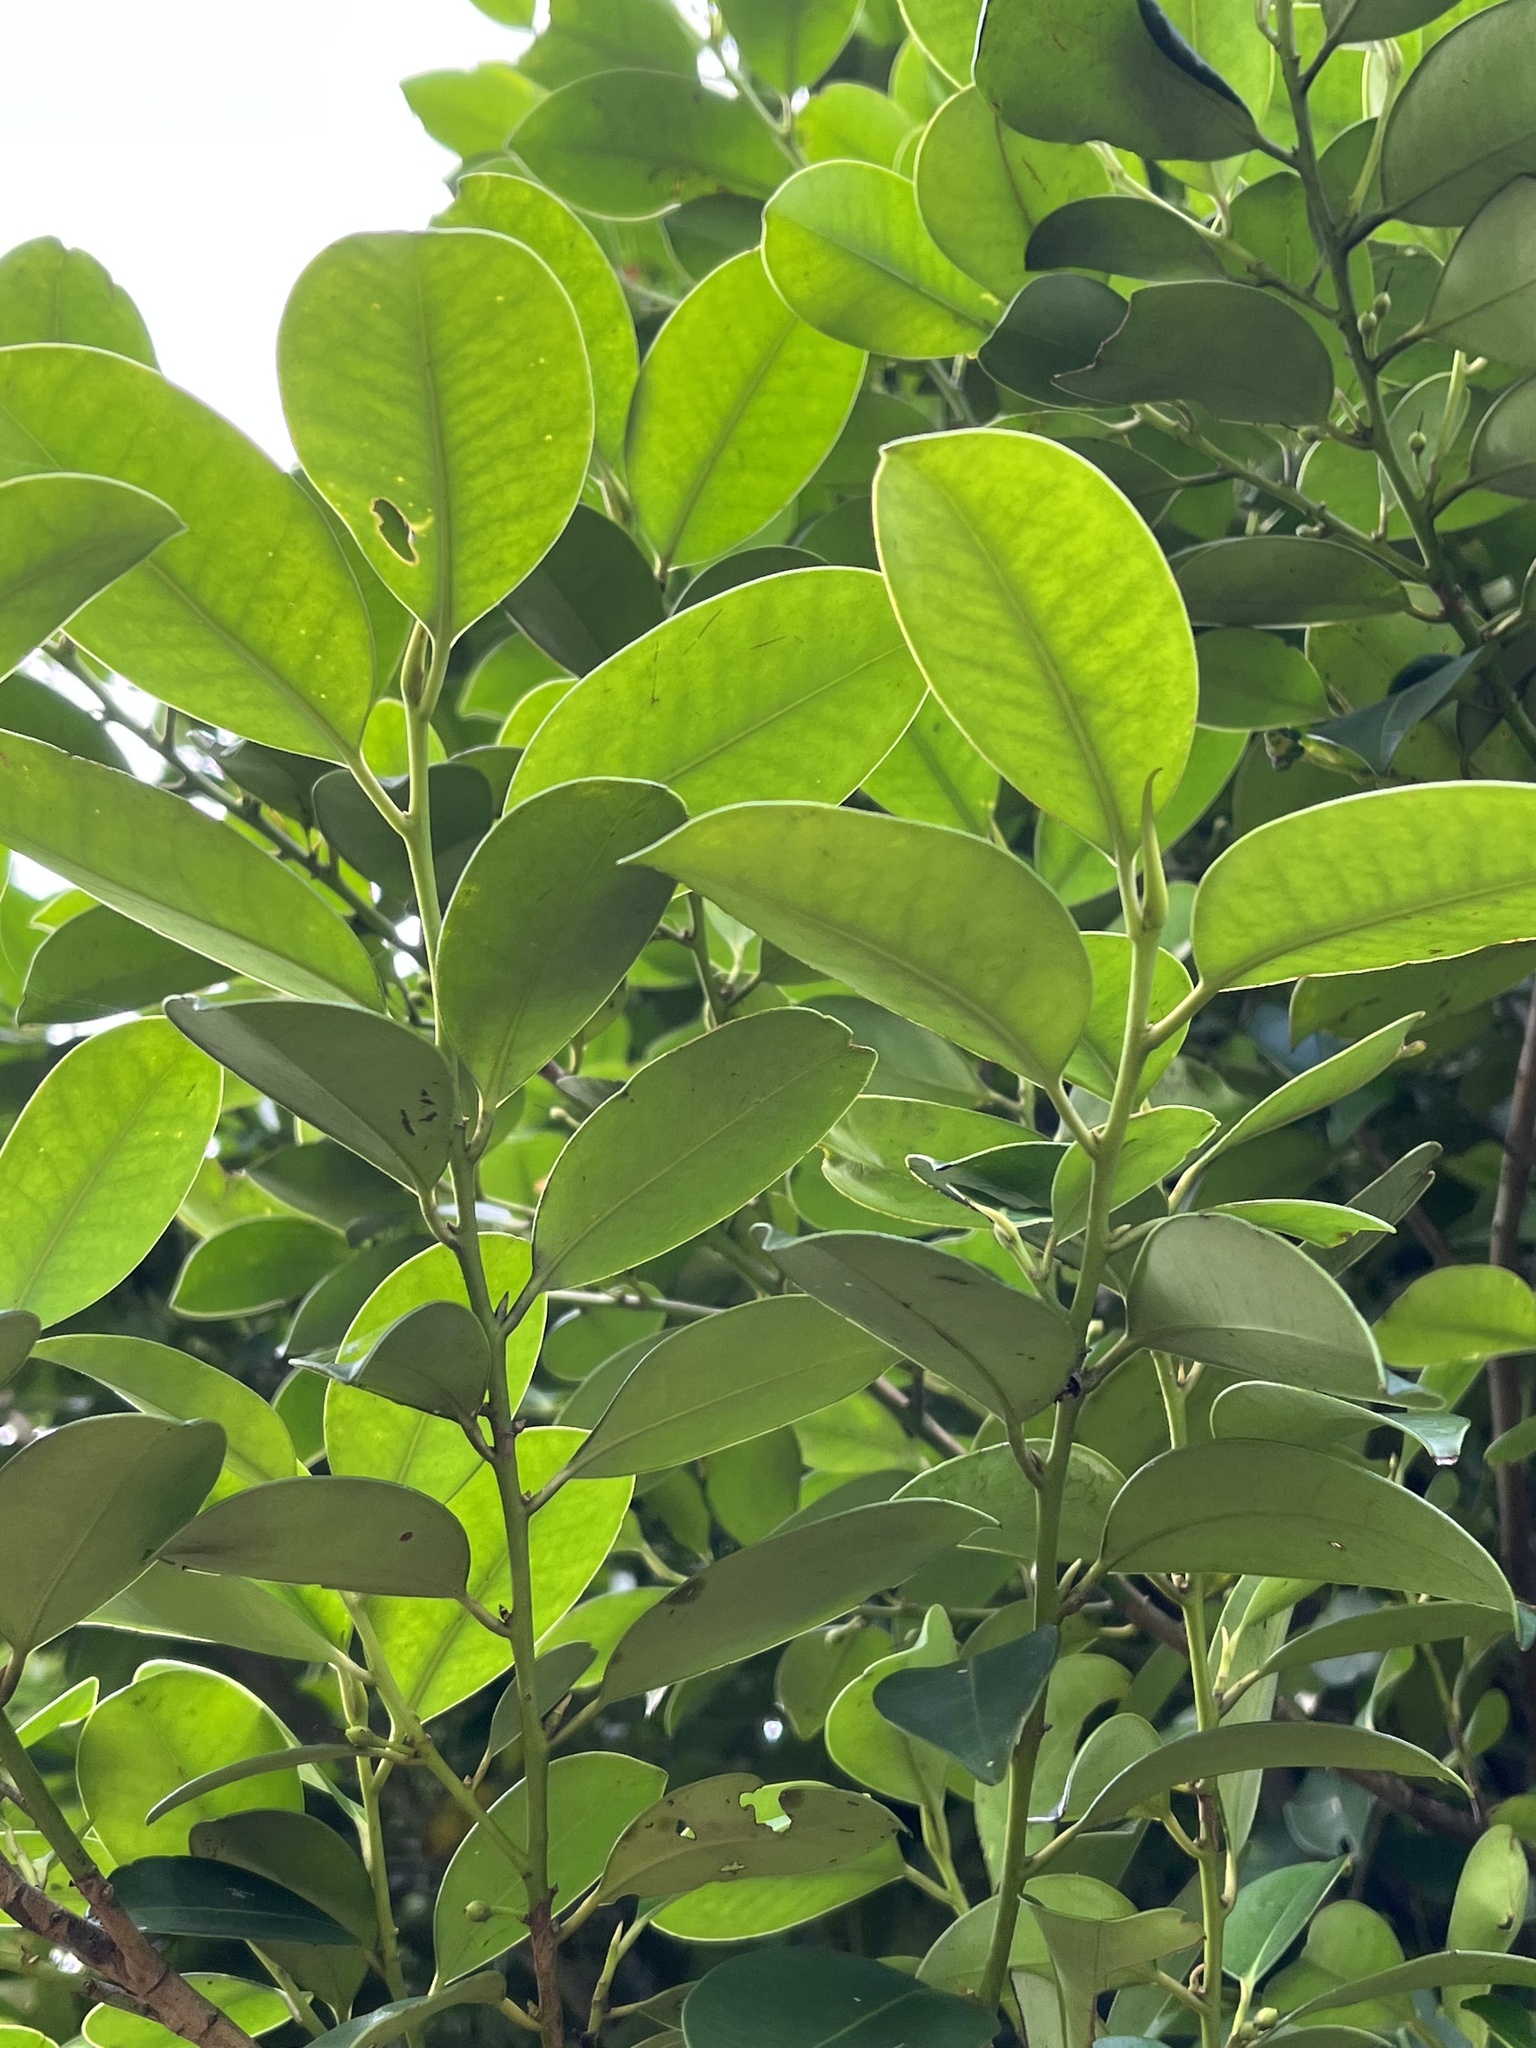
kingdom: Plantae
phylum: Tracheophyta
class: Magnoliopsida
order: Ericales
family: Pentaphylacaceae
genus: Cleyera
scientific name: Cleyera japonica
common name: Sakaki
